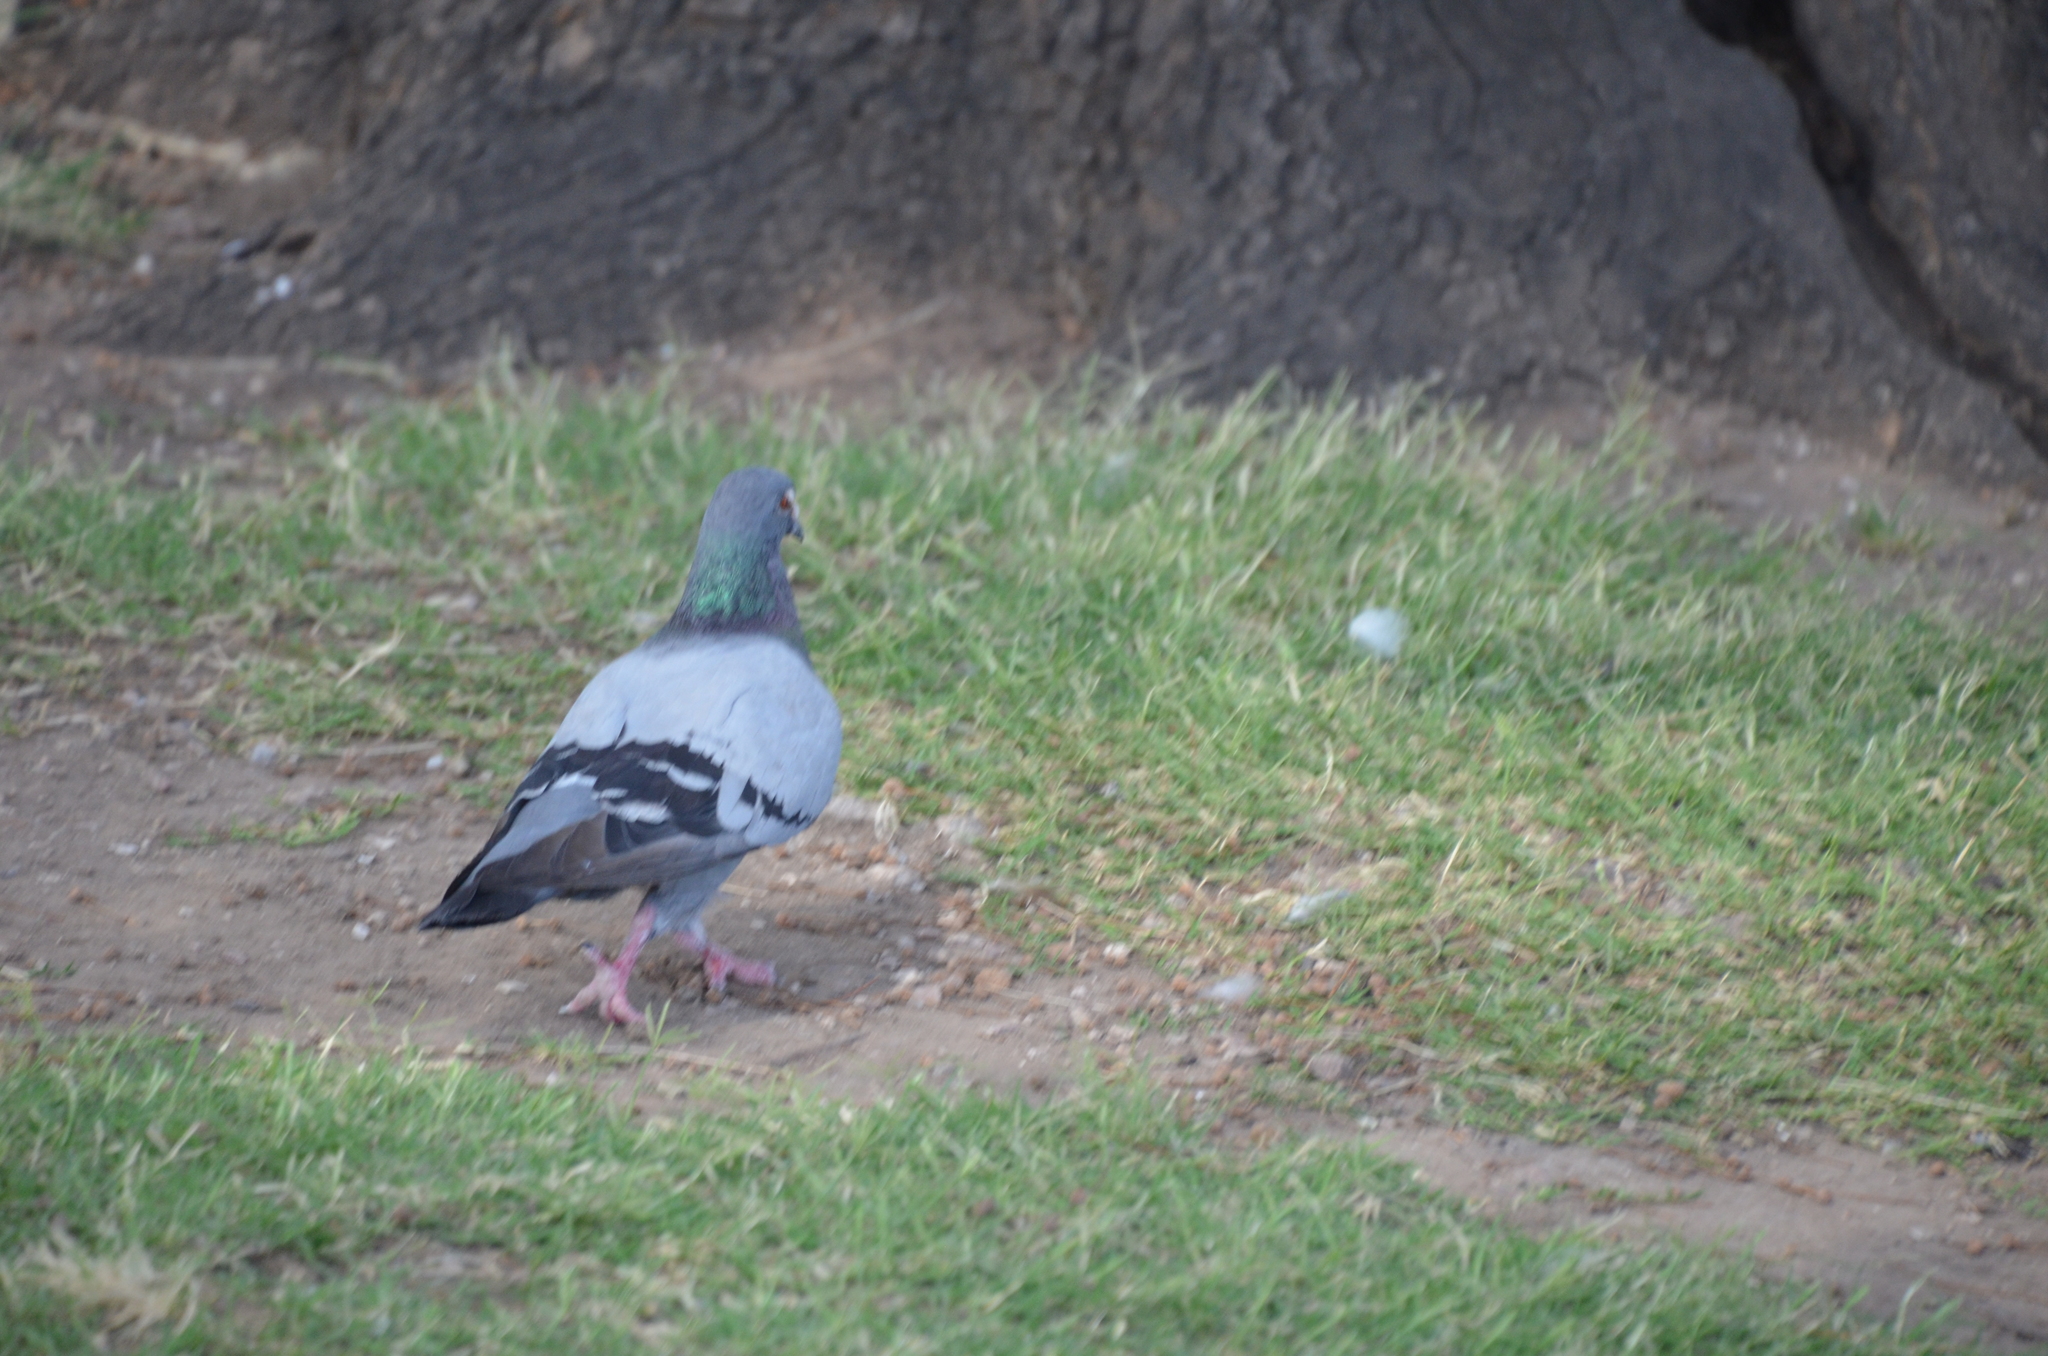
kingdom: Animalia
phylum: Chordata
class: Aves
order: Columbiformes
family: Columbidae
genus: Columba
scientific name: Columba livia
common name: Rock pigeon
